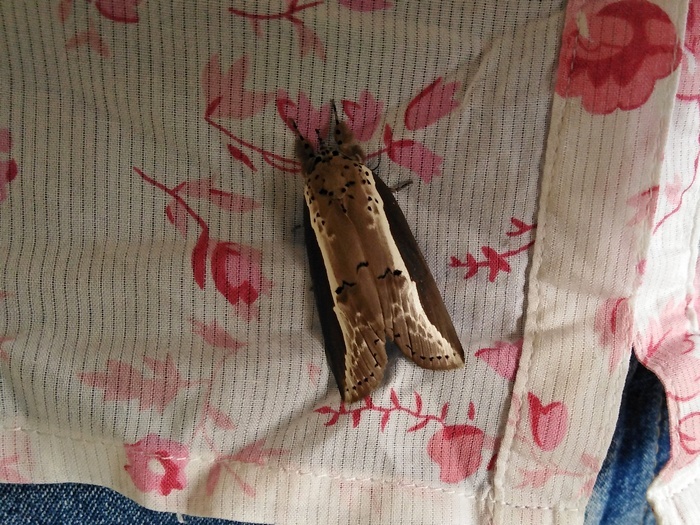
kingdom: Animalia
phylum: Arthropoda
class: Insecta
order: Lepidoptera
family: Nolidae
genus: Eligma
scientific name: Eligma narcissus
